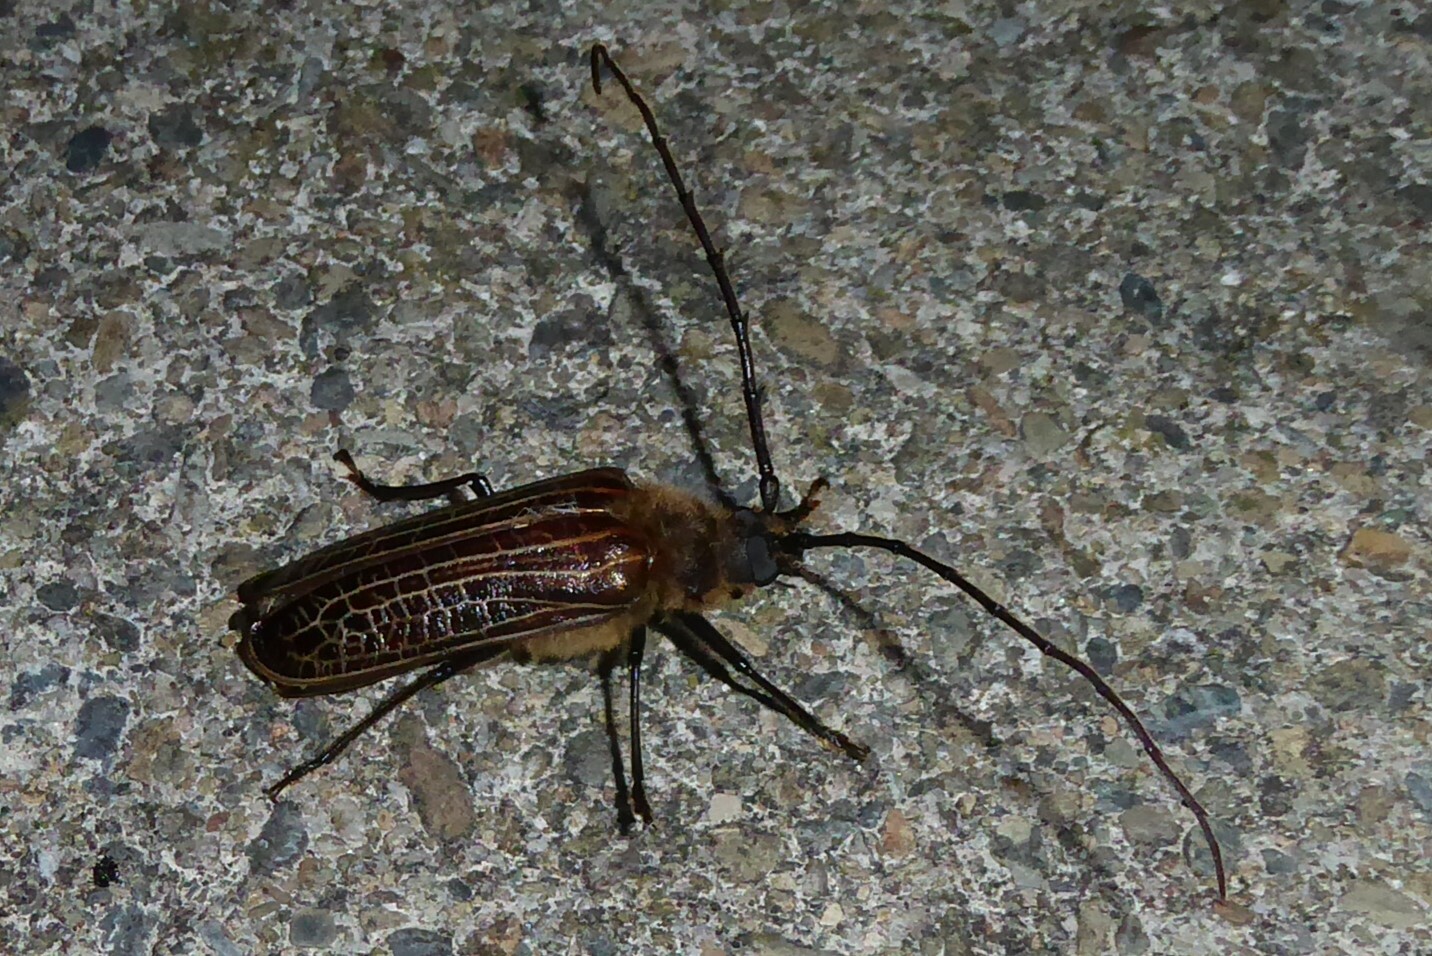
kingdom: Animalia
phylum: Arthropoda
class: Insecta
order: Coleoptera
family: Cerambycidae
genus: Prionoplus
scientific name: Prionoplus reticularis
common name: Huhu beetle
